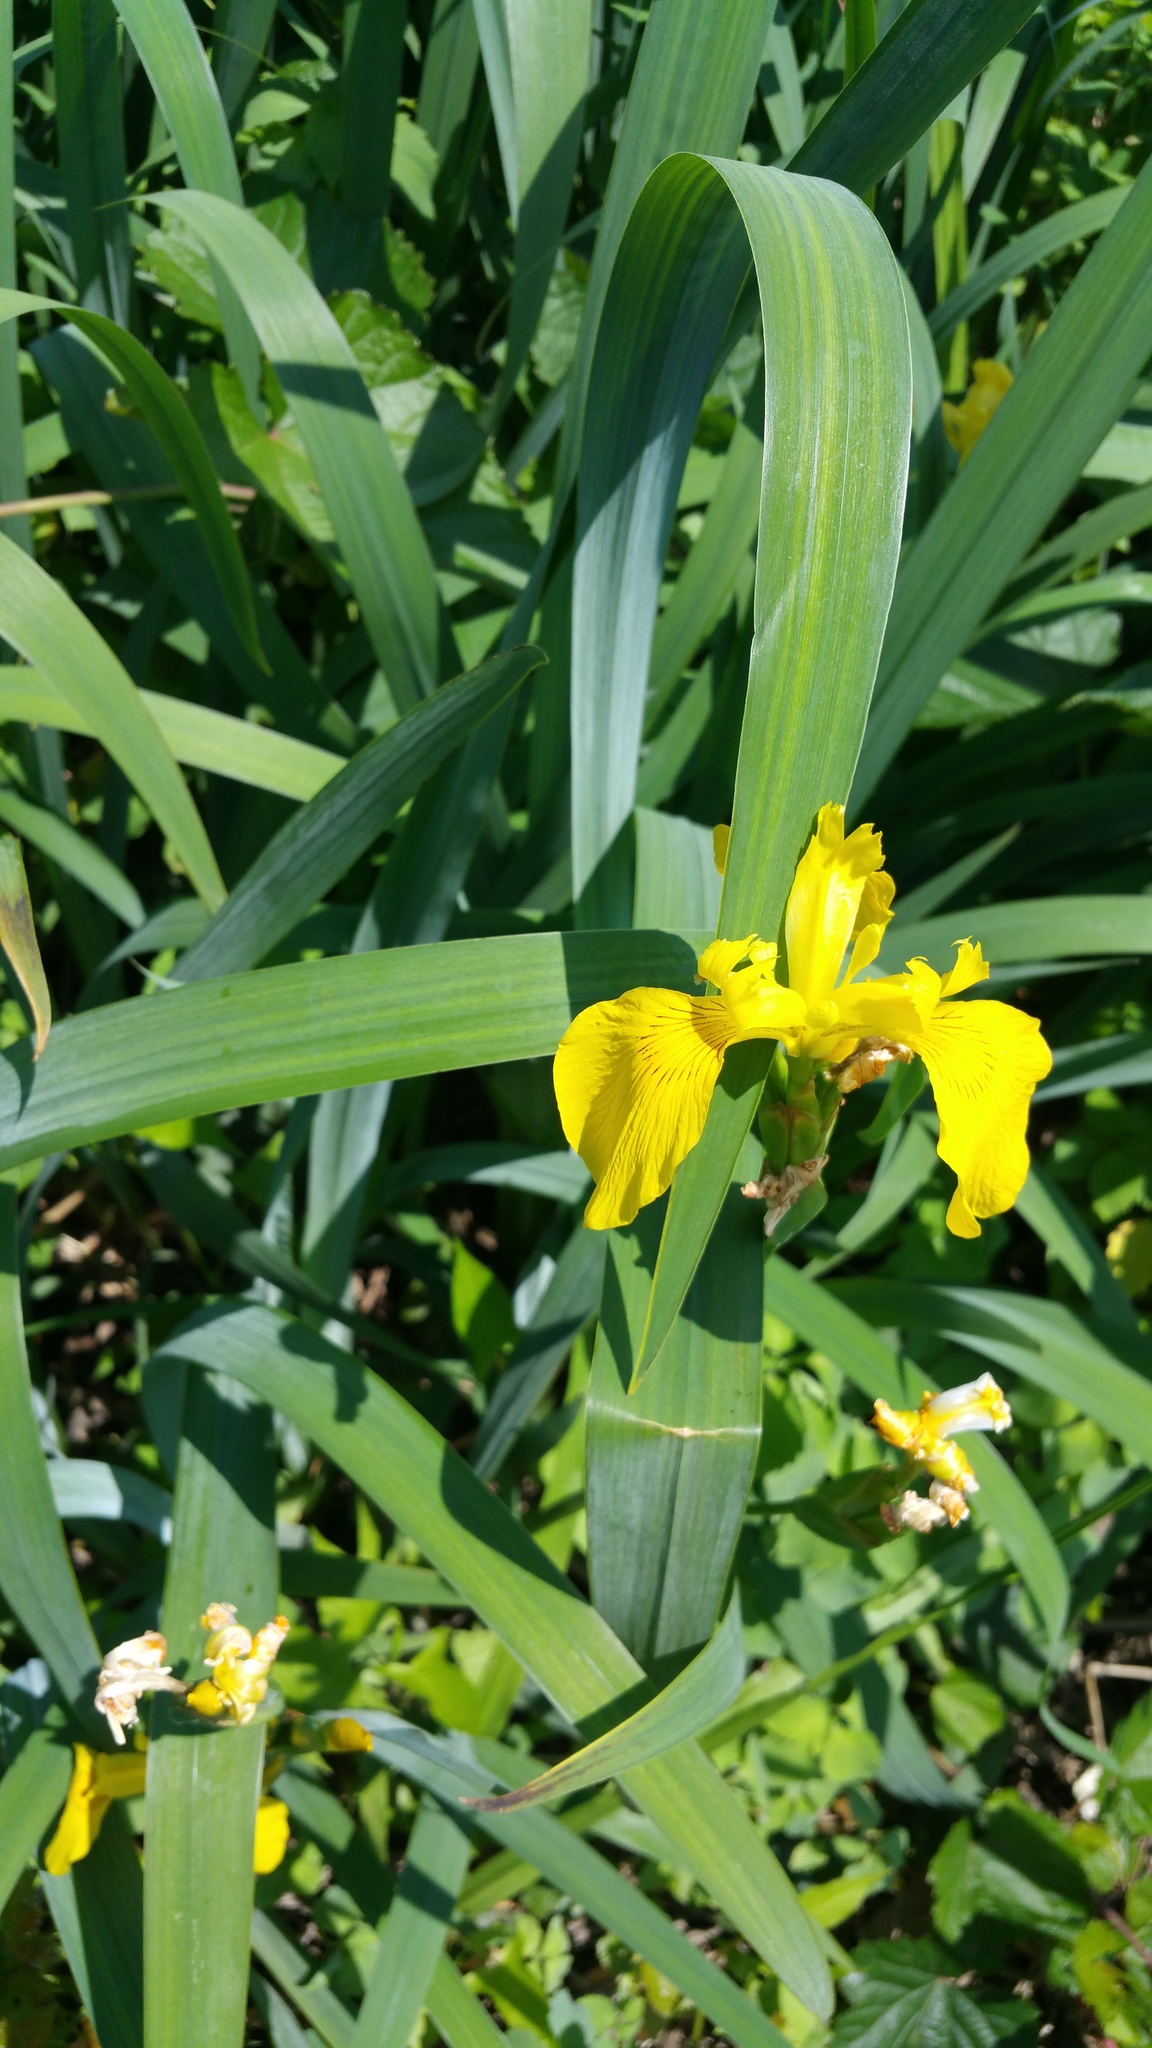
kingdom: Plantae
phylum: Tracheophyta
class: Liliopsida
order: Asparagales
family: Iridaceae
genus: Iris
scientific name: Iris pseudacorus
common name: Yellow flag
